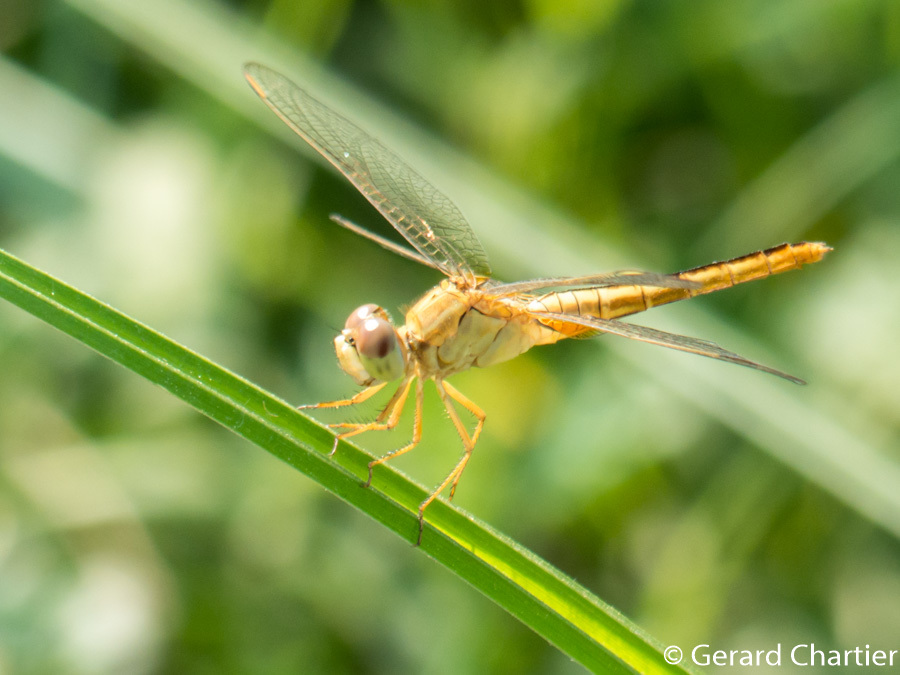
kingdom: Animalia
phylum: Arthropoda
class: Insecta
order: Odonata
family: Libellulidae
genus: Crocothemis
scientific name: Crocothemis servilia
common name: Scarlet skimmer
